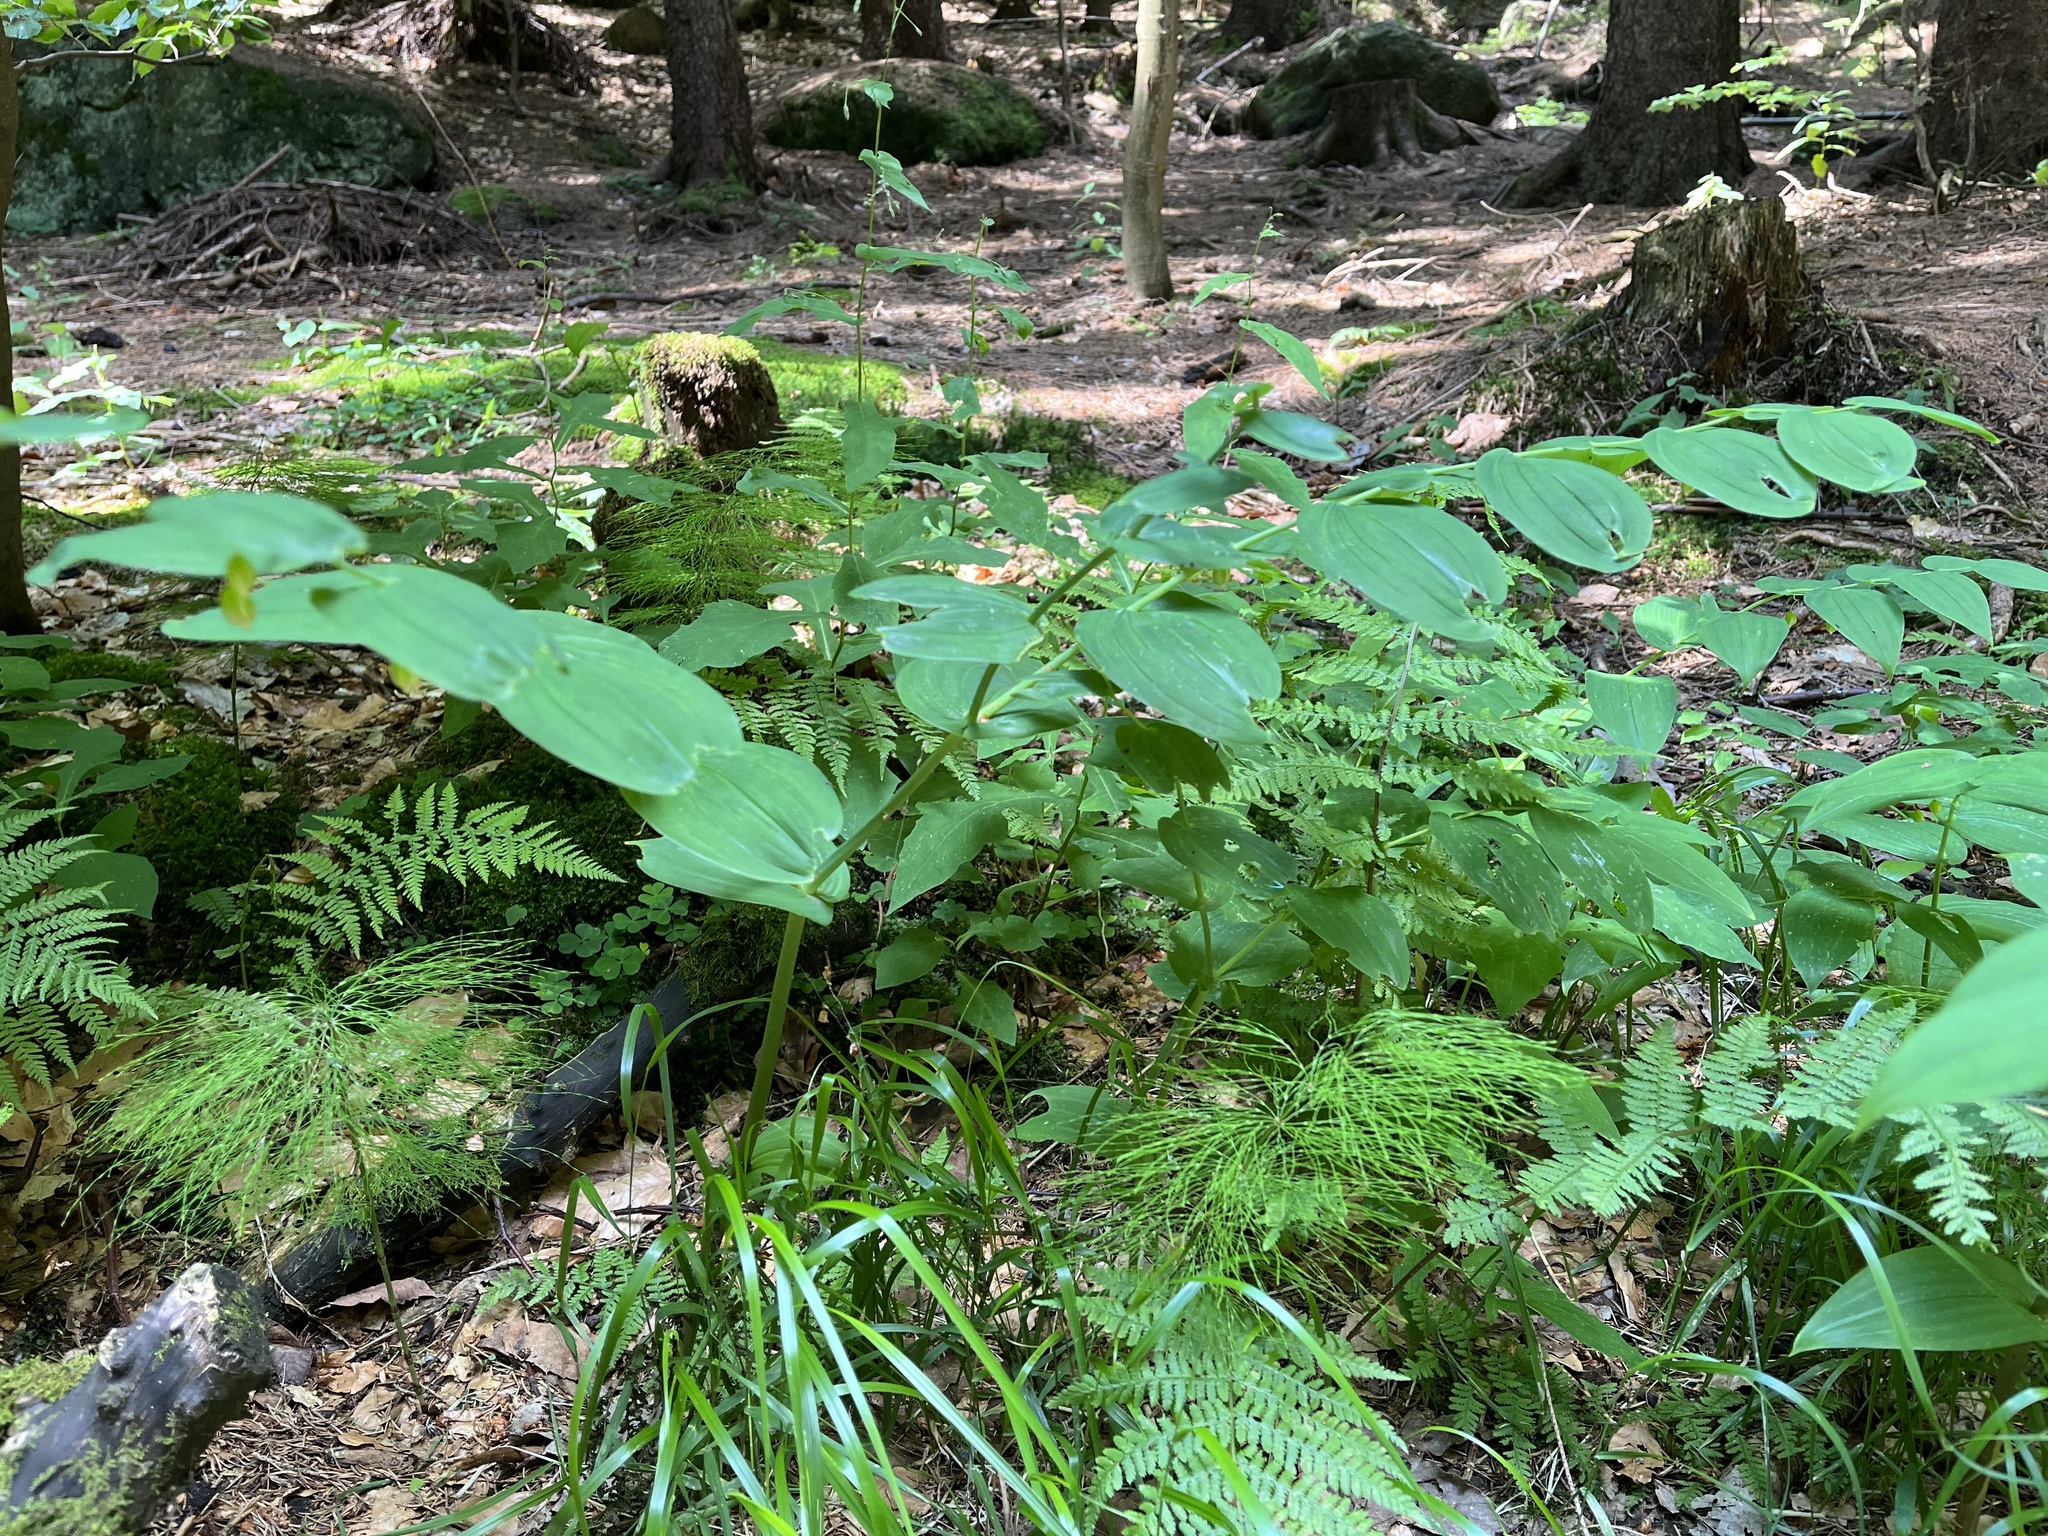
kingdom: Plantae
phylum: Tracheophyta
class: Liliopsida
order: Liliales
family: Liliaceae
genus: Streptopus
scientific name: Streptopus amplexifolius
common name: Clasp twisted stalk
